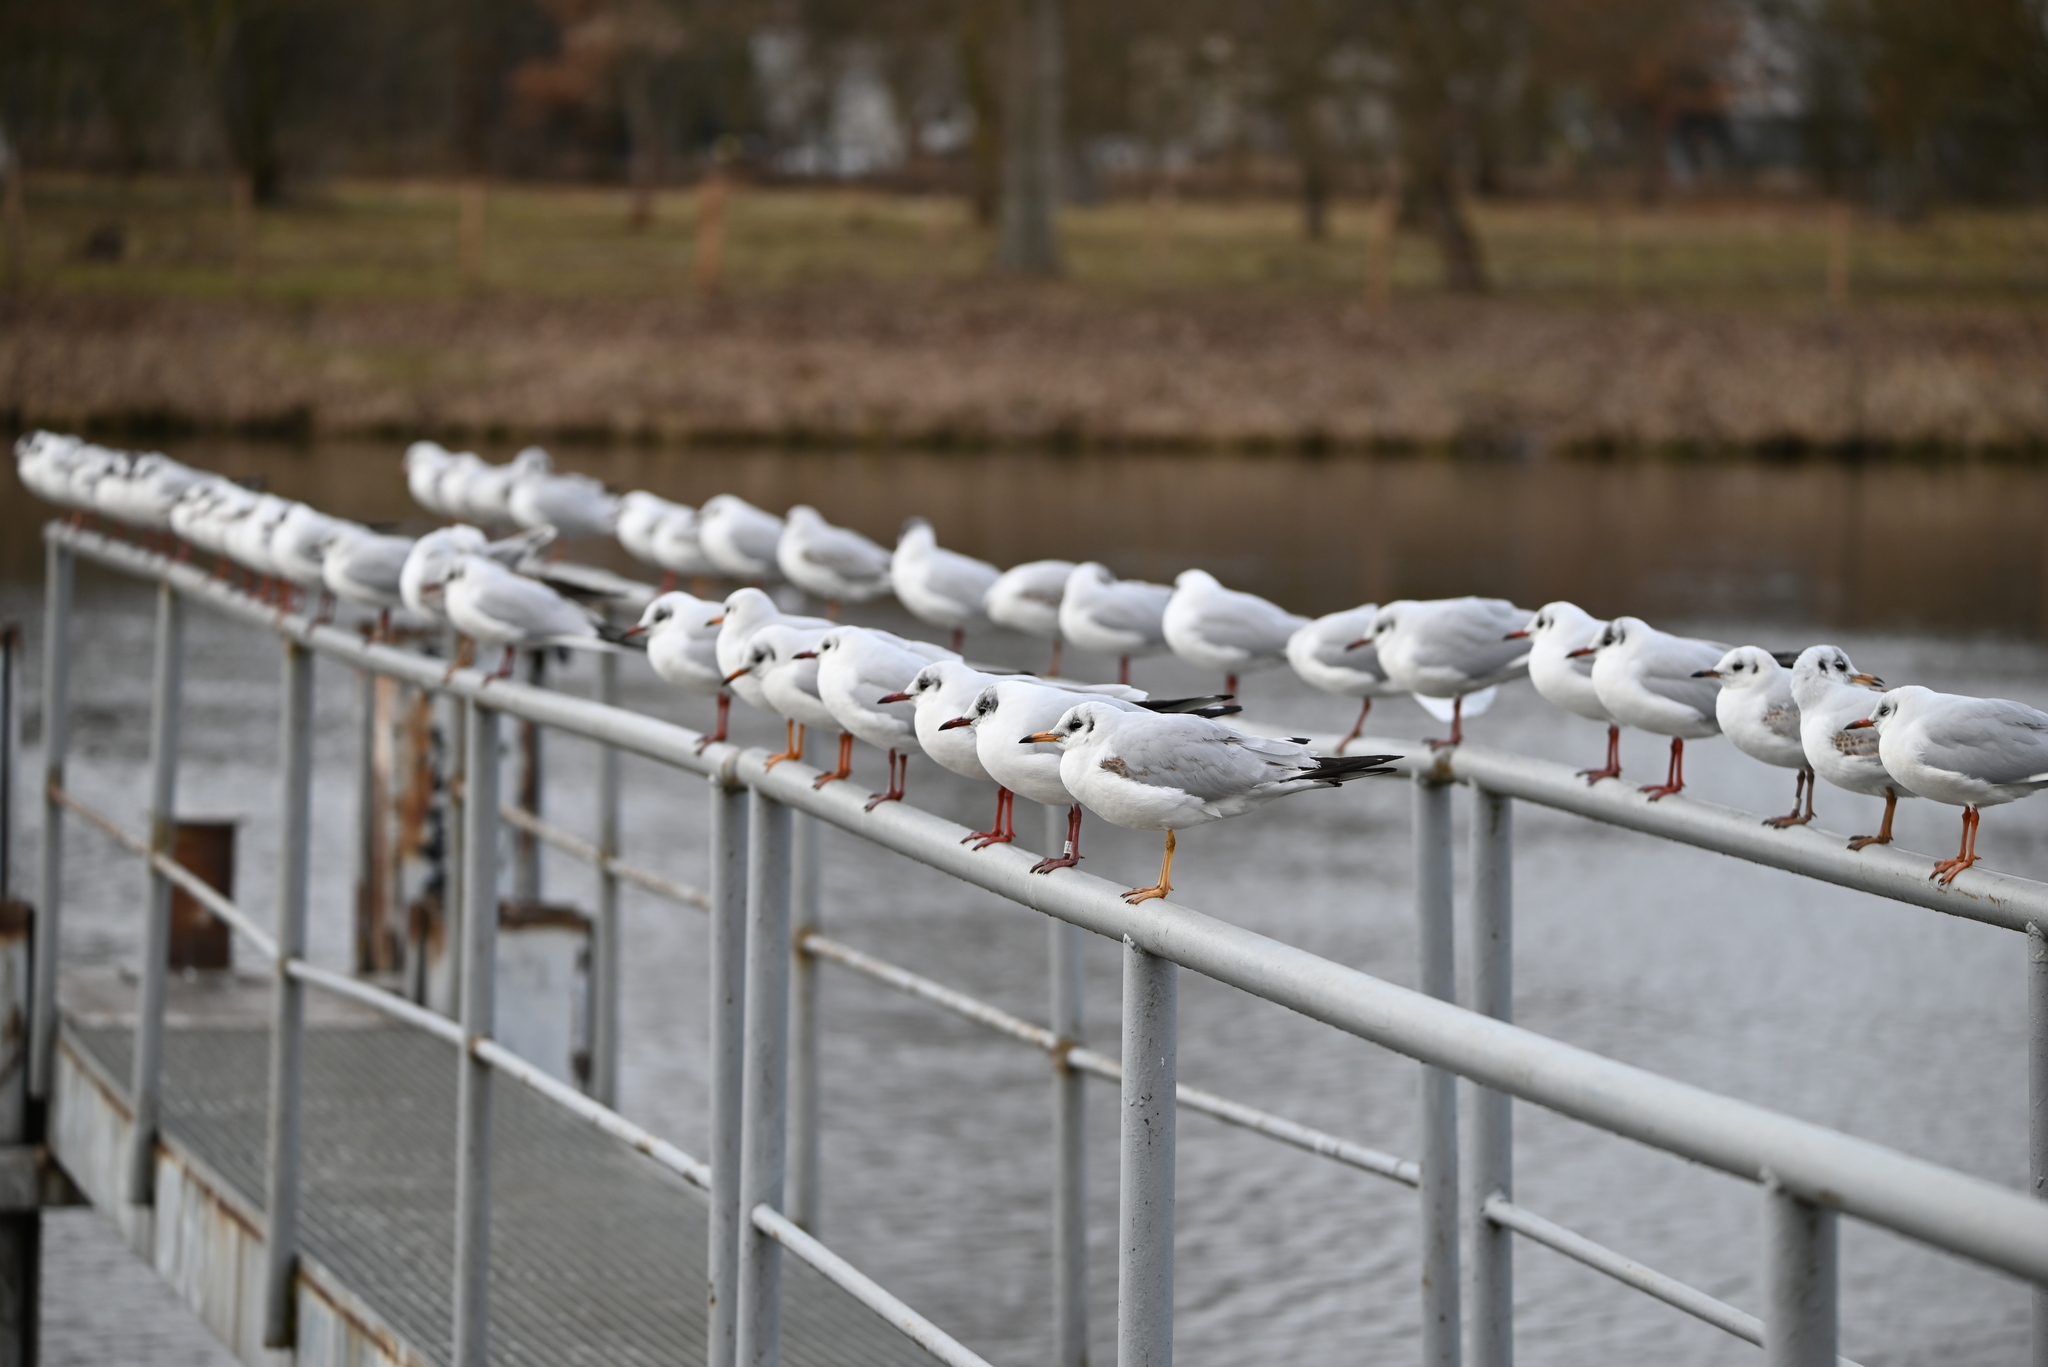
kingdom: Animalia
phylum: Chordata
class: Aves
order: Charadriiformes
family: Laridae
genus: Chroicocephalus
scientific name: Chroicocephalus ridibundus
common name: Black-headed gull
